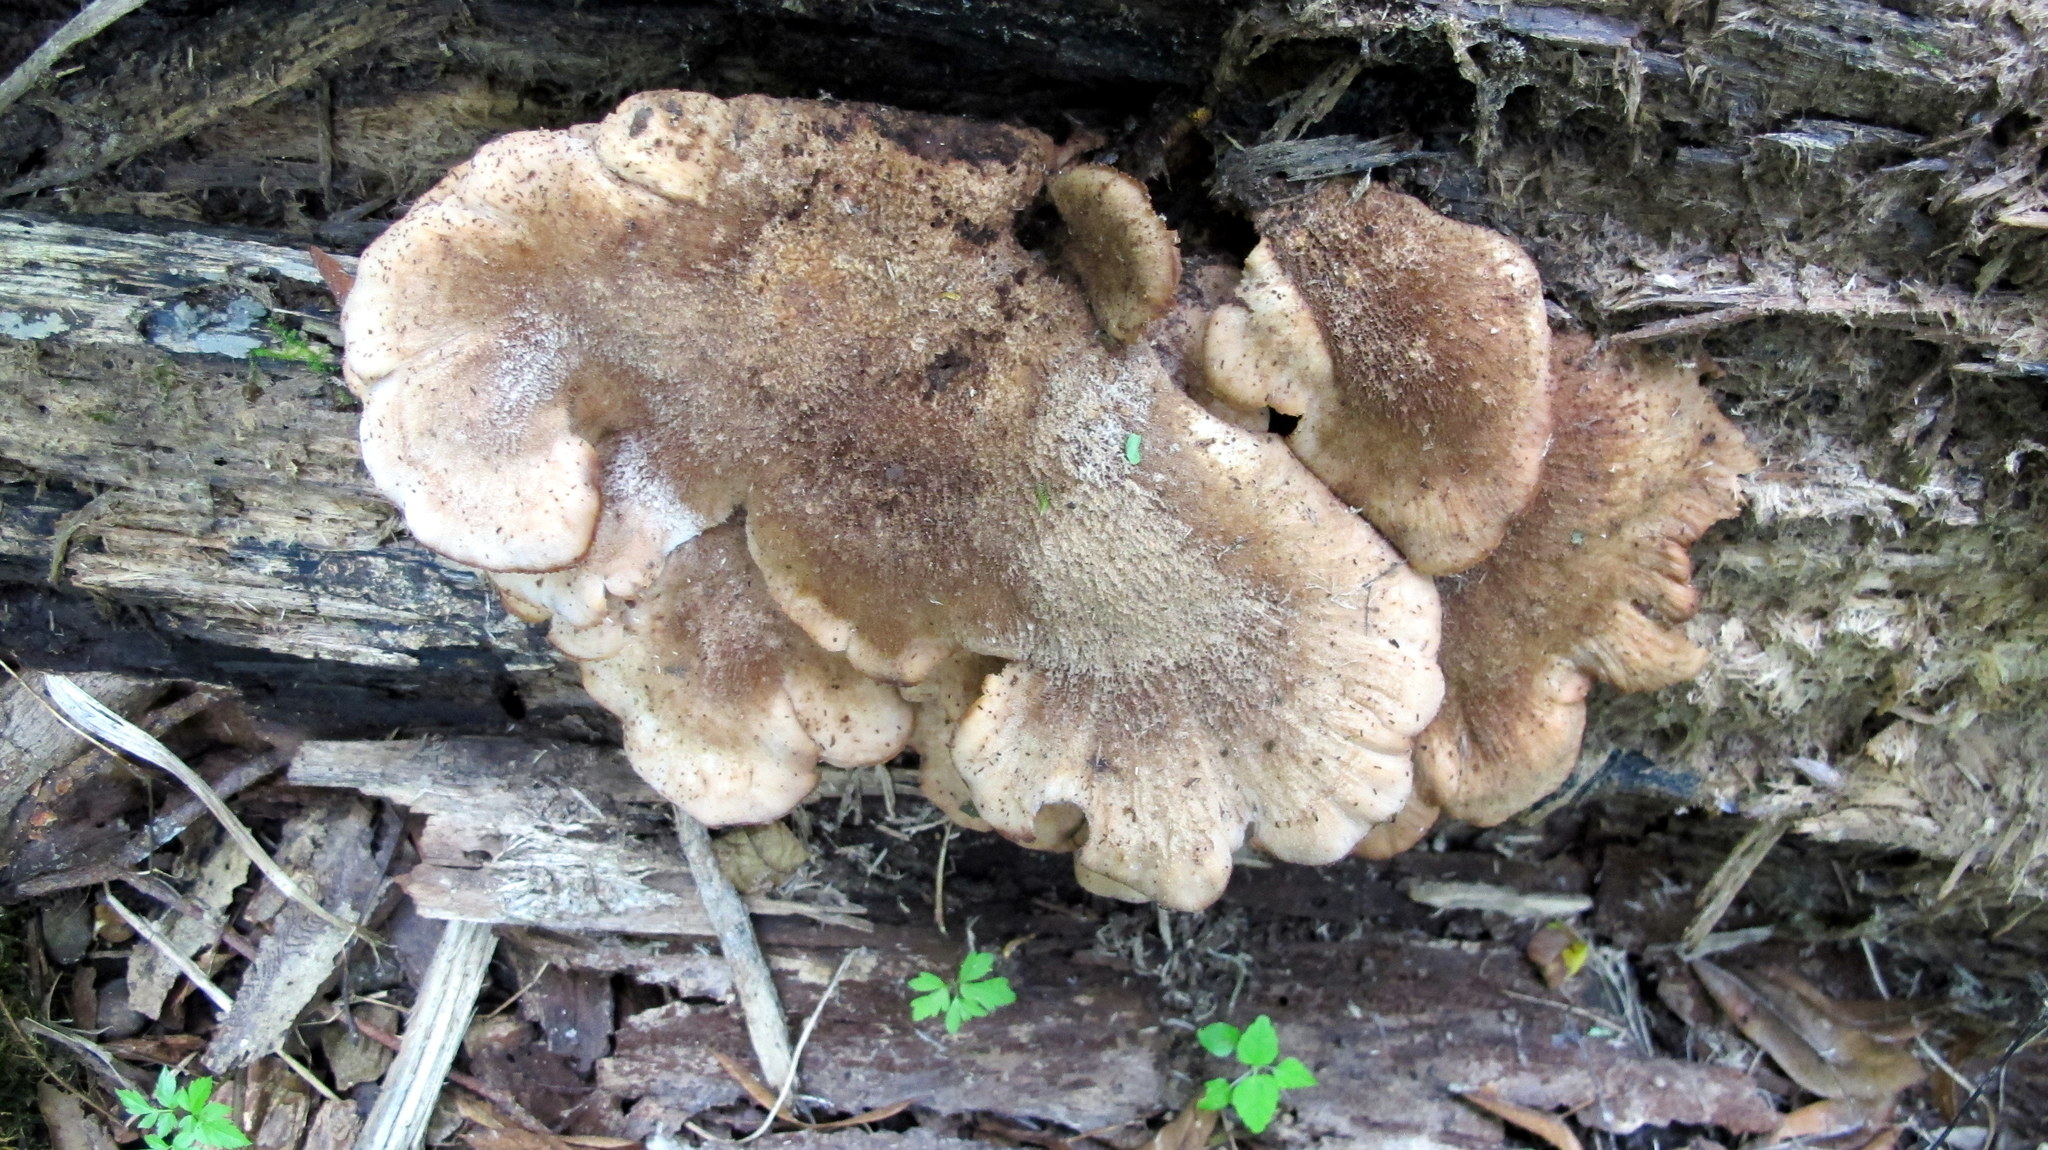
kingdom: Fungi
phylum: Basidiomycota
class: Agaricomycetes
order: Russulales
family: Auriscalpiaceae
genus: Lentinellus
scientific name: Lentinellus ursinus
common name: Bear lentinus
